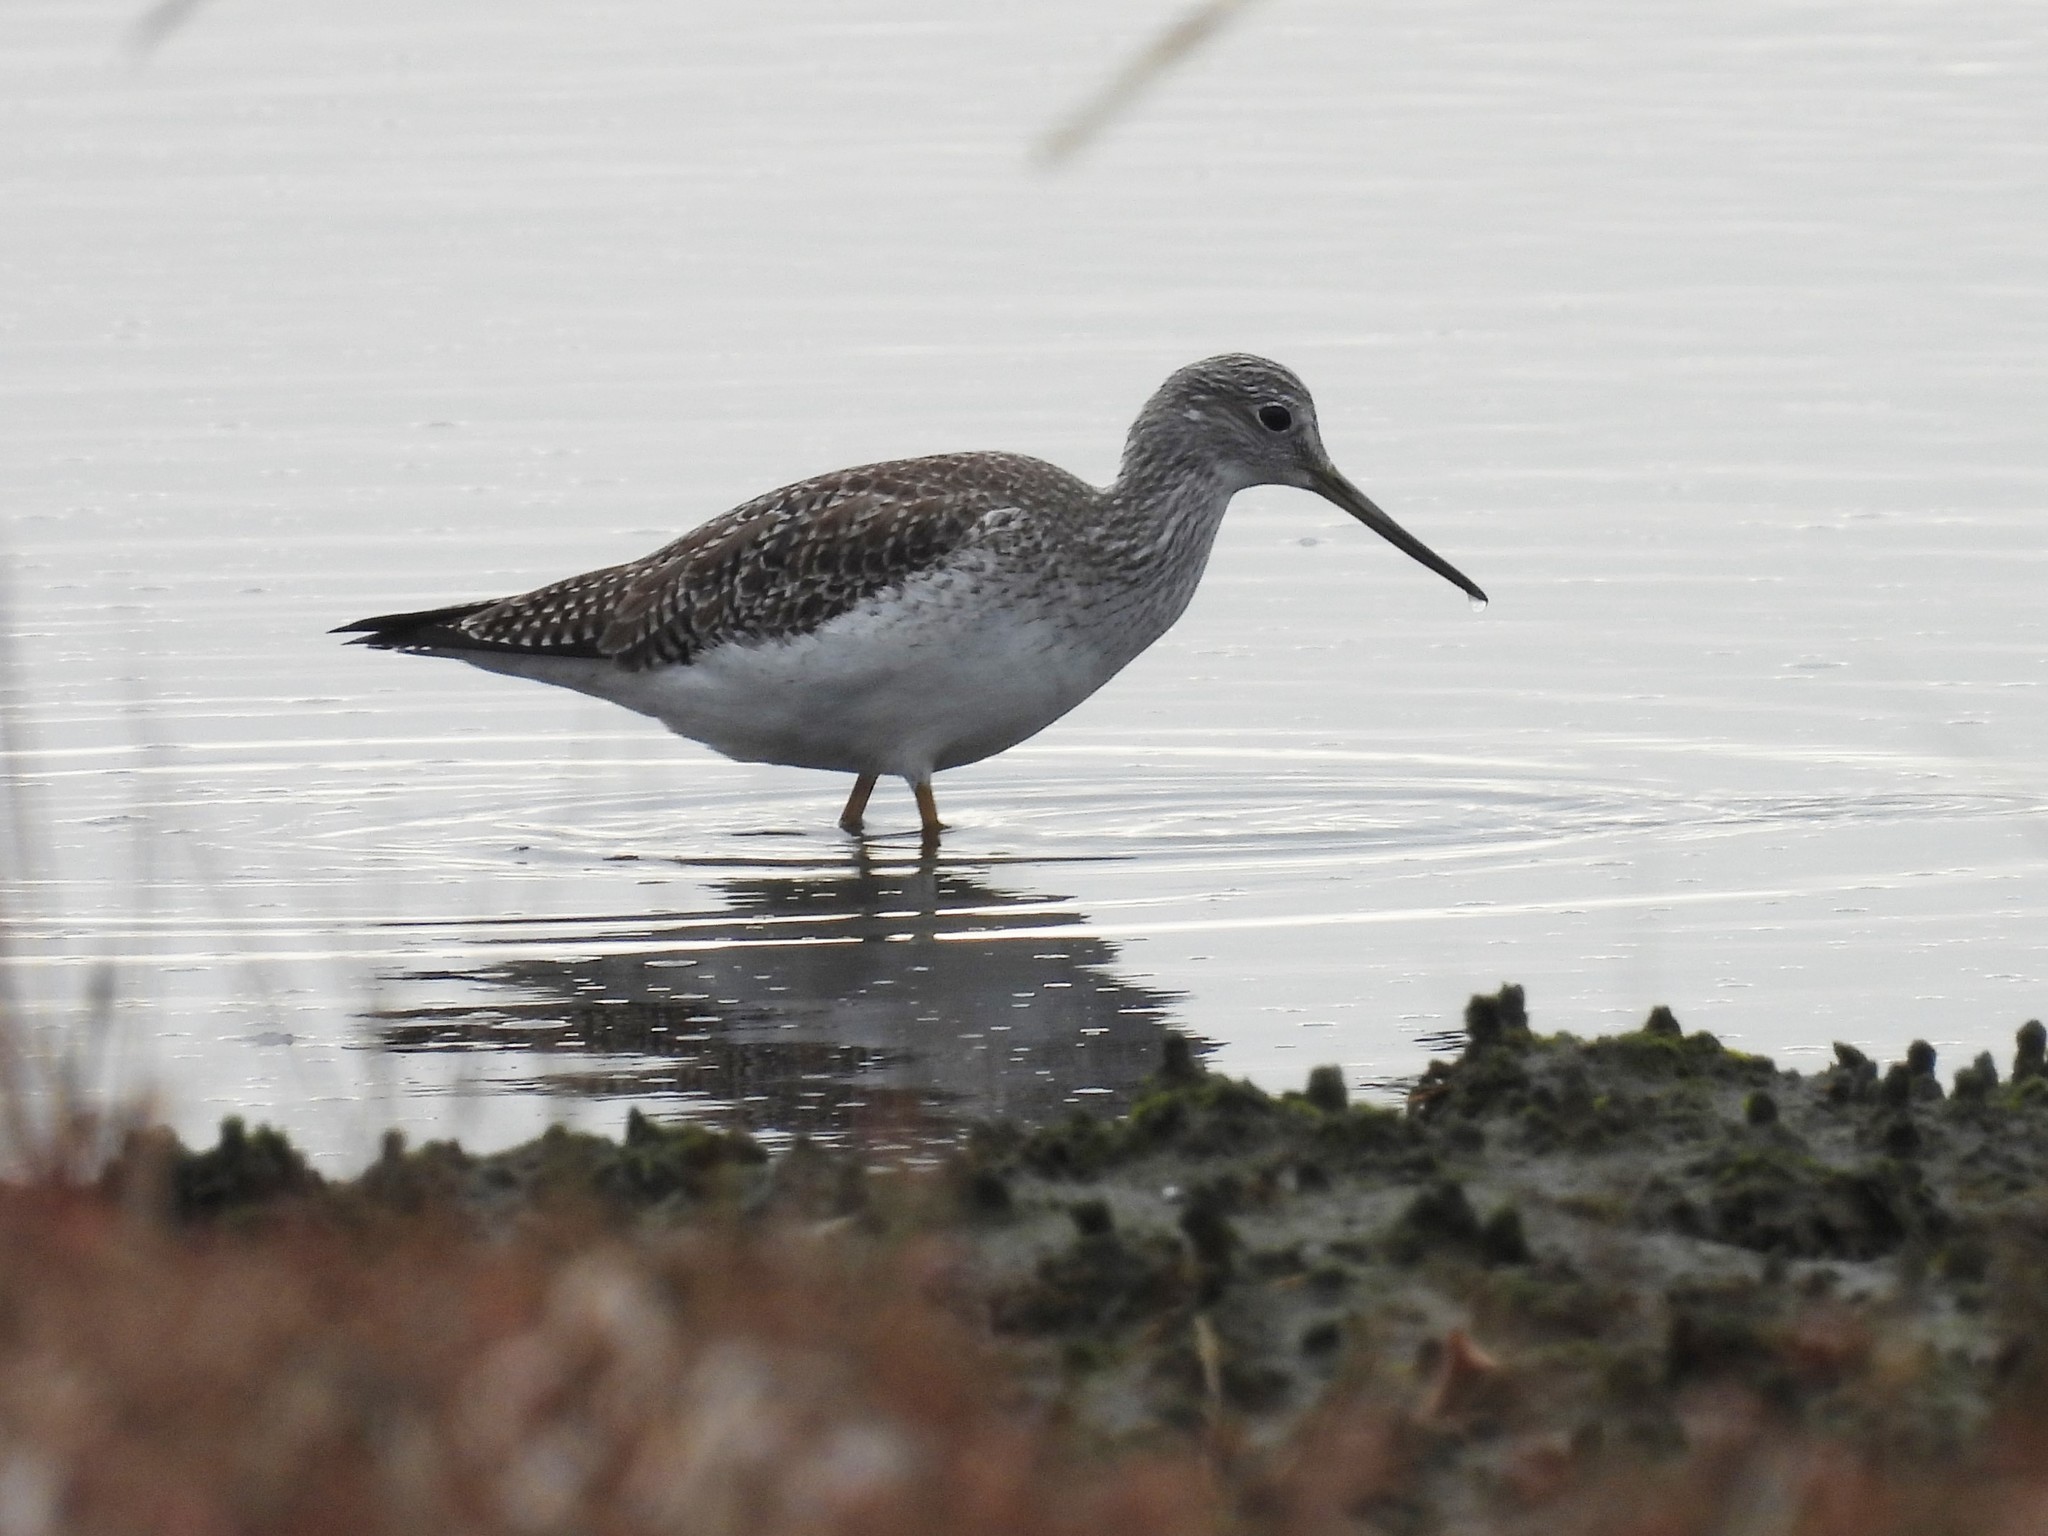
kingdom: Animalia
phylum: Chordata
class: Aves
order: Charadriiformes
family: Scolopacidae
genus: Tringa
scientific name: Tringa melanoleuca
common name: Greater yellowlegs
